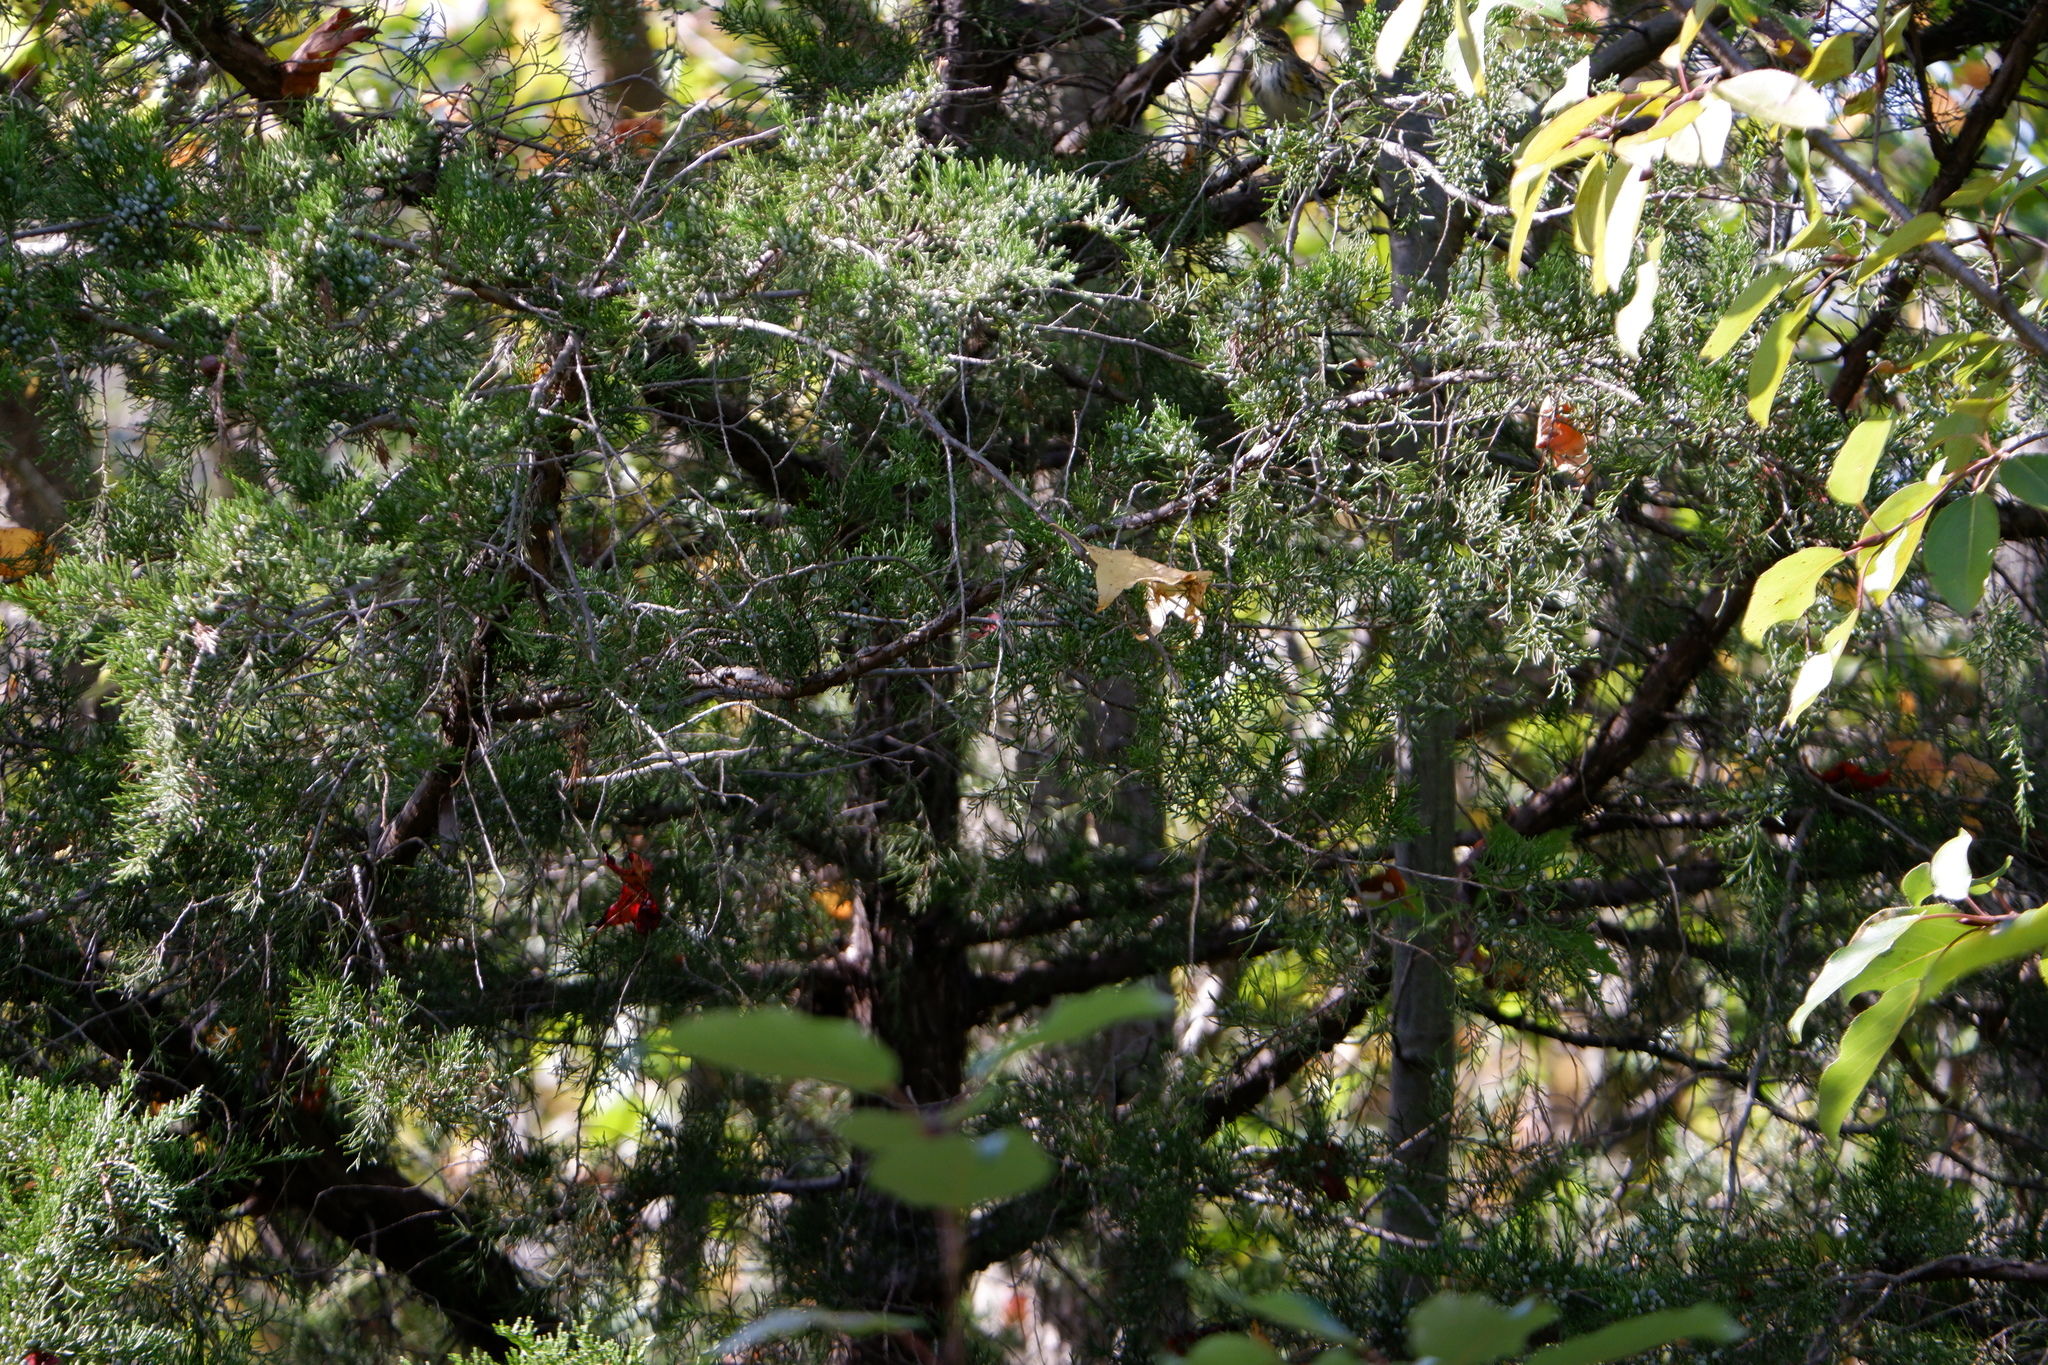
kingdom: Animalia
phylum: Chordata
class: Aves
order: Passeriformes
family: Parulidae
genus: Setophaga
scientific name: Setophaga coronata
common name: Myrtle warbler
